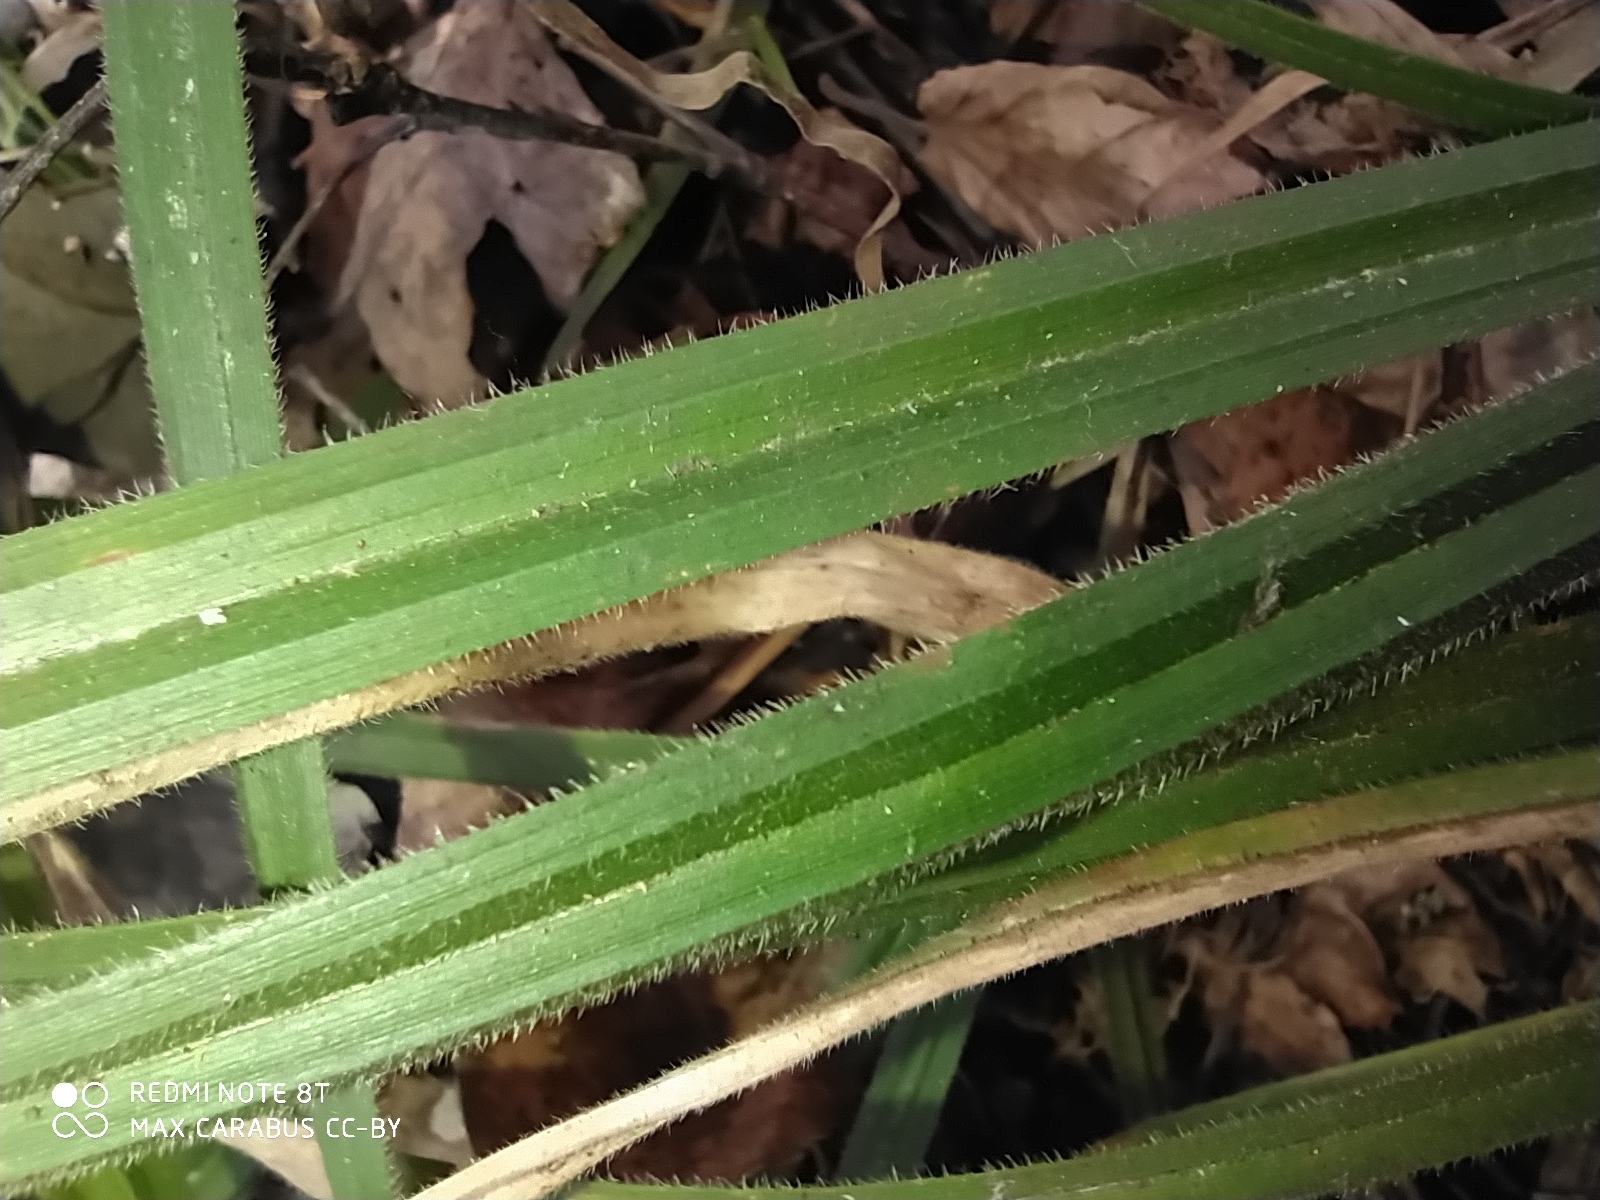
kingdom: Plantae
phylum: Tracheophyta
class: Liliopsida
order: Poales
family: Cyperaceae
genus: Carex
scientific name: Carex pilosa
